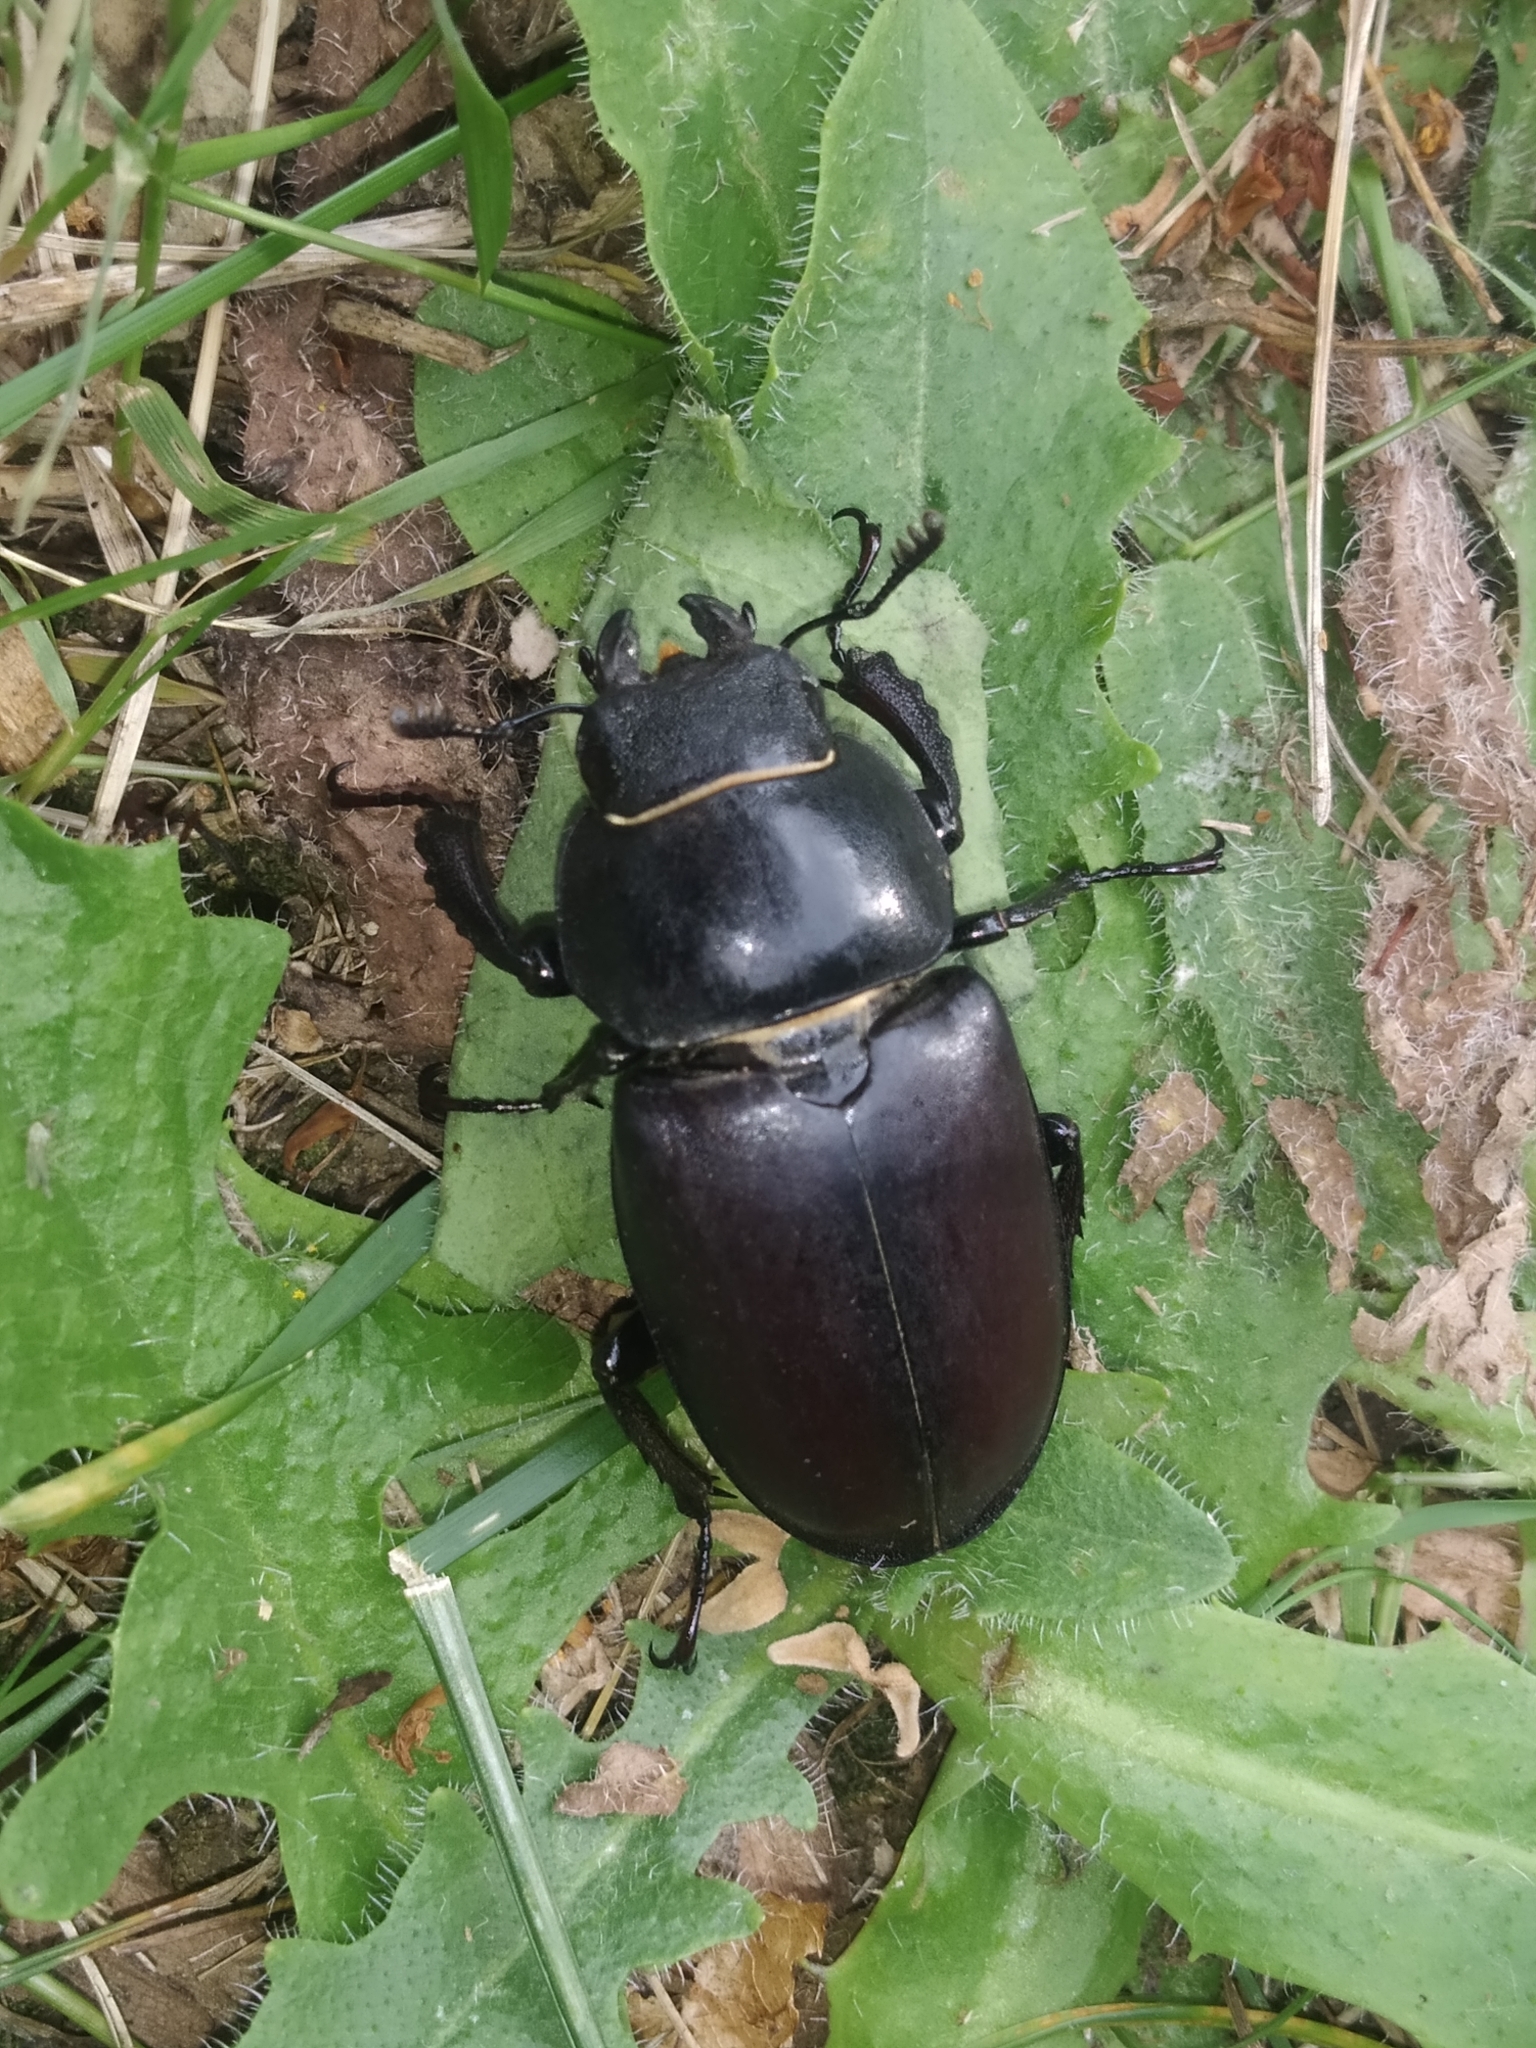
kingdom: Animalia
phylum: Arthropoda
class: Insecta
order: Coleoptera
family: Lucanidae
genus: Lucanus
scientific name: Lucanus cervus
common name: Stag beetle
